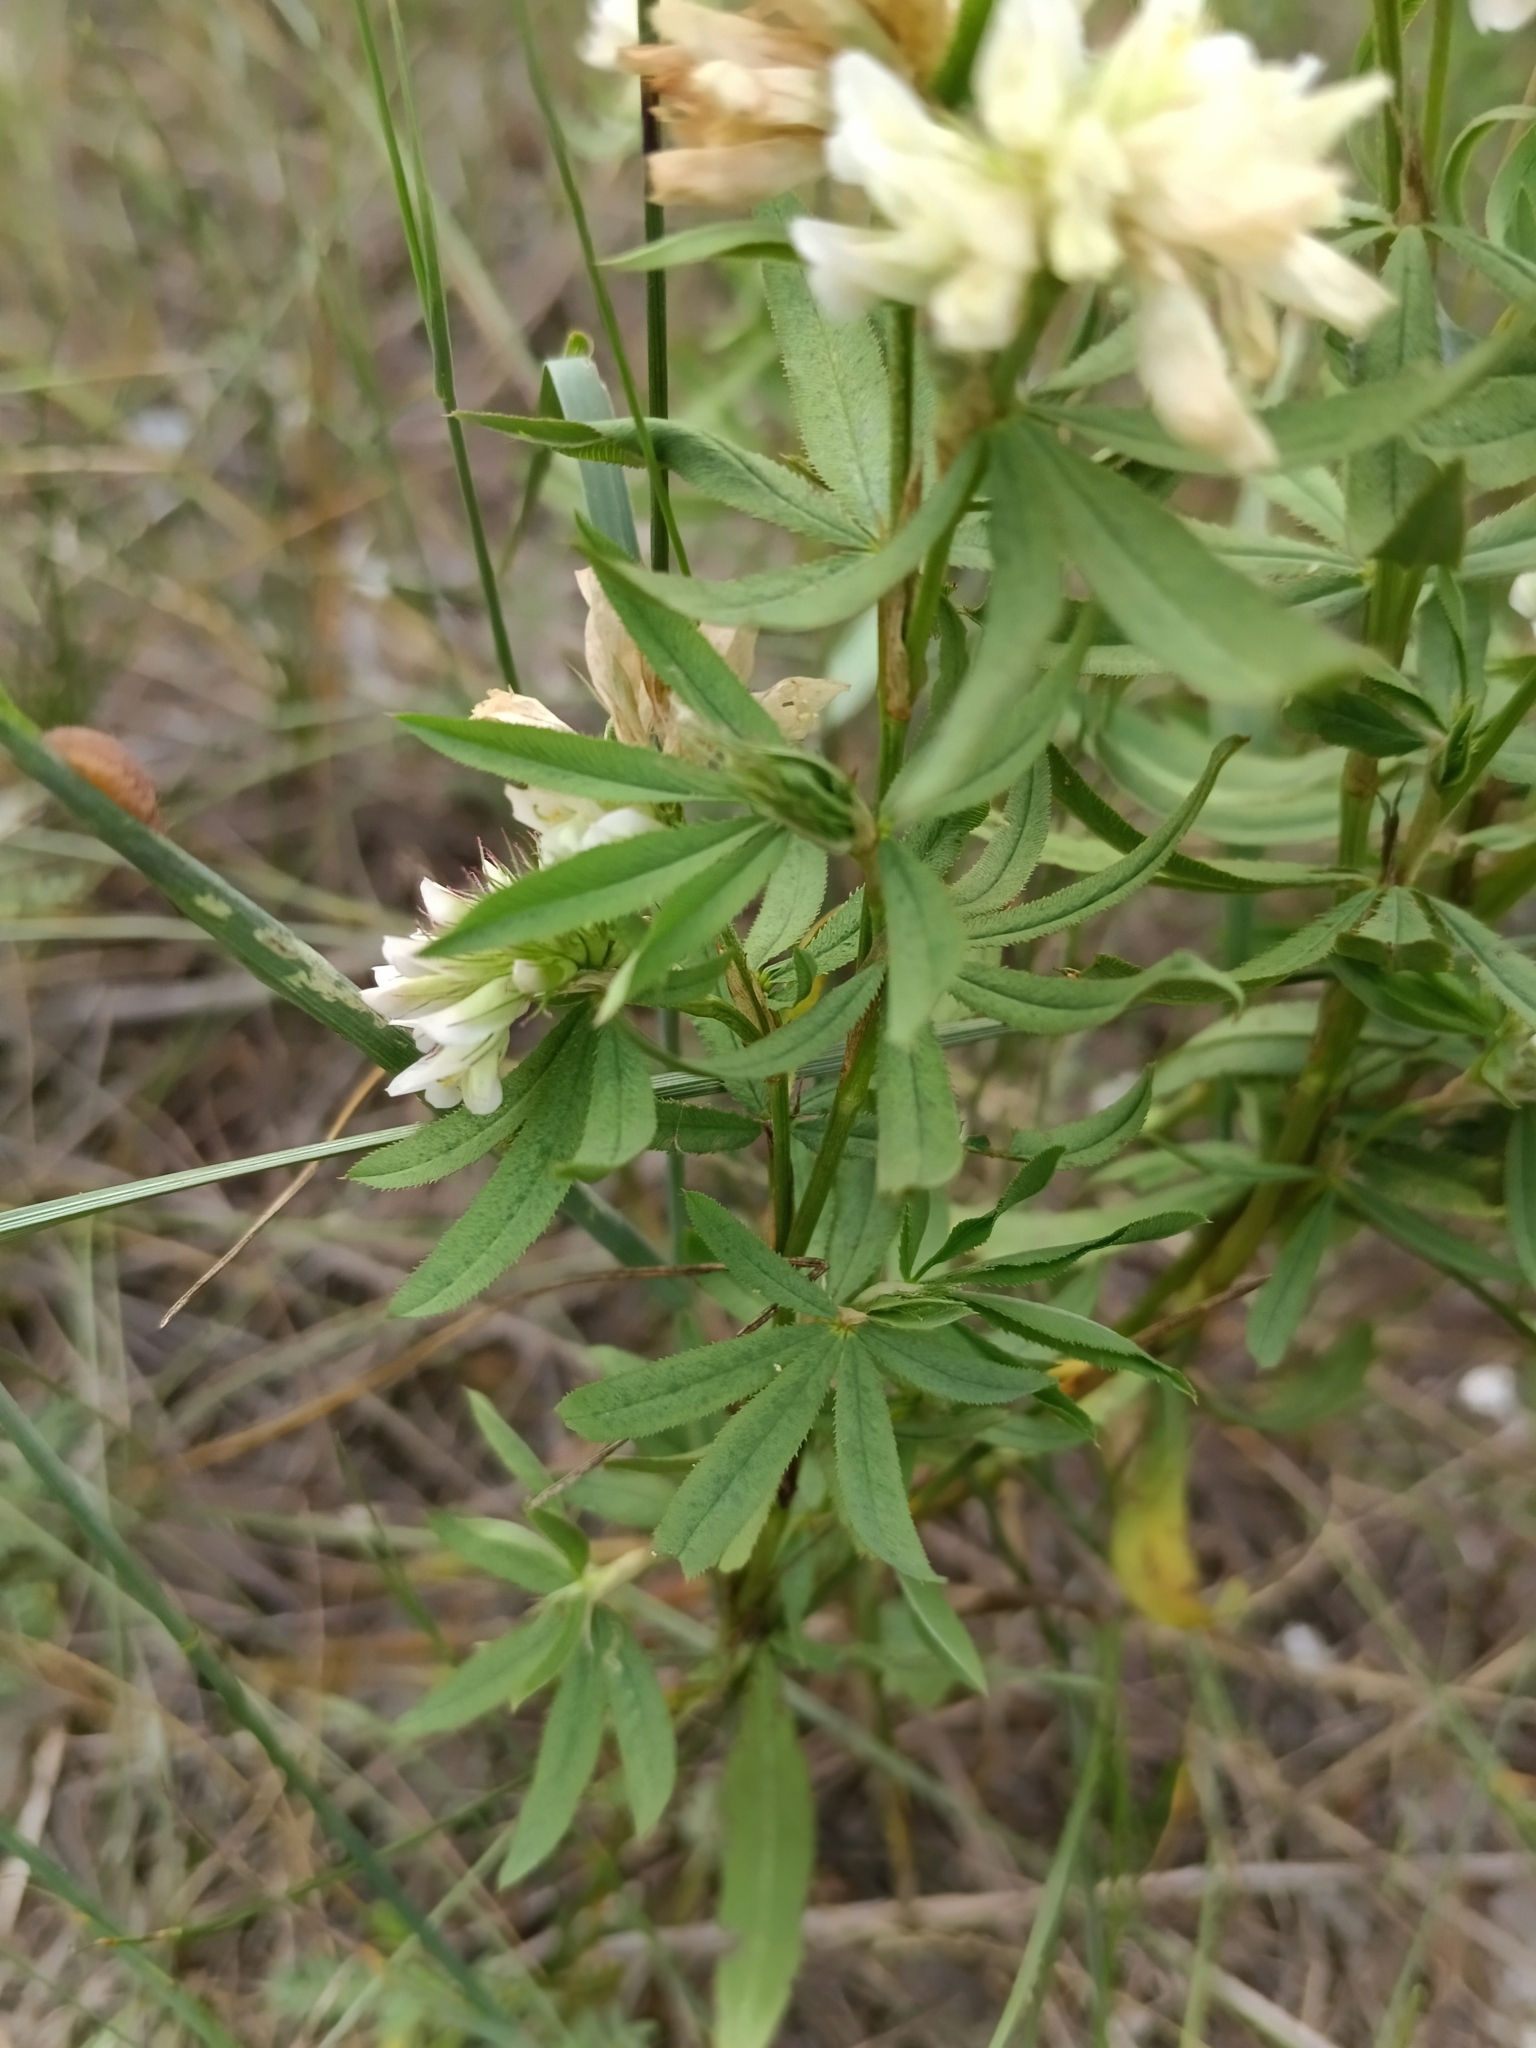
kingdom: Plantae
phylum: Tracheophyta
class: Magnoliopsida
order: Fabales
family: Fabaceae
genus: Trifolium
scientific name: Trifolium lupinaster
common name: Lupine clover
